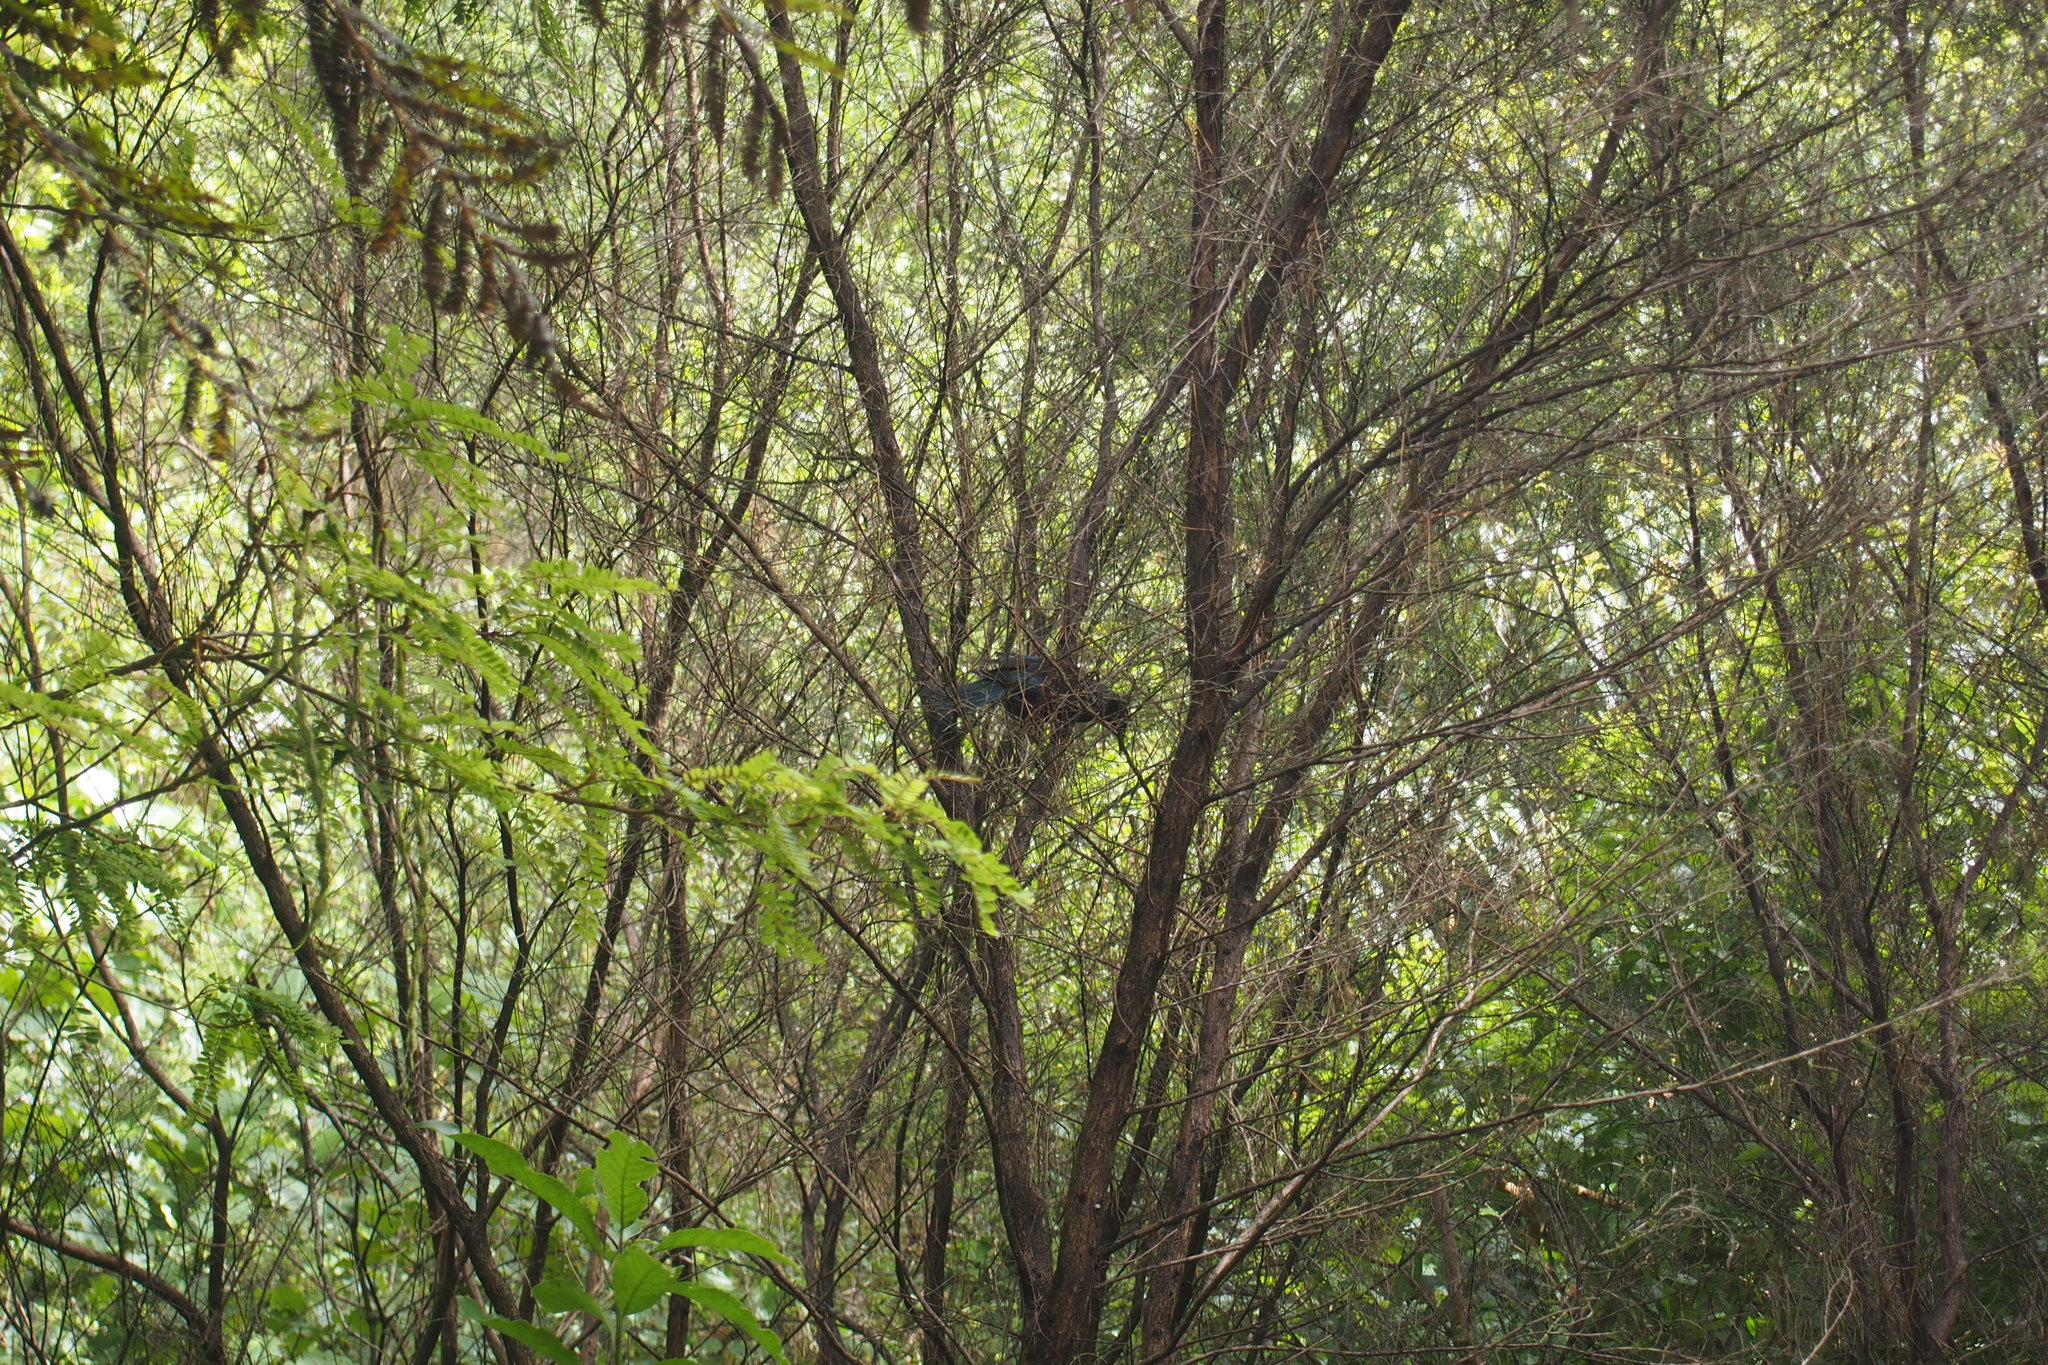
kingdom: Animalia
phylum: Chordata
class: Aves
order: Passeriformes
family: Meliphagidae
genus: Prosthemadera
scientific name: Prosthemadera novaeseelandiae
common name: Tui
